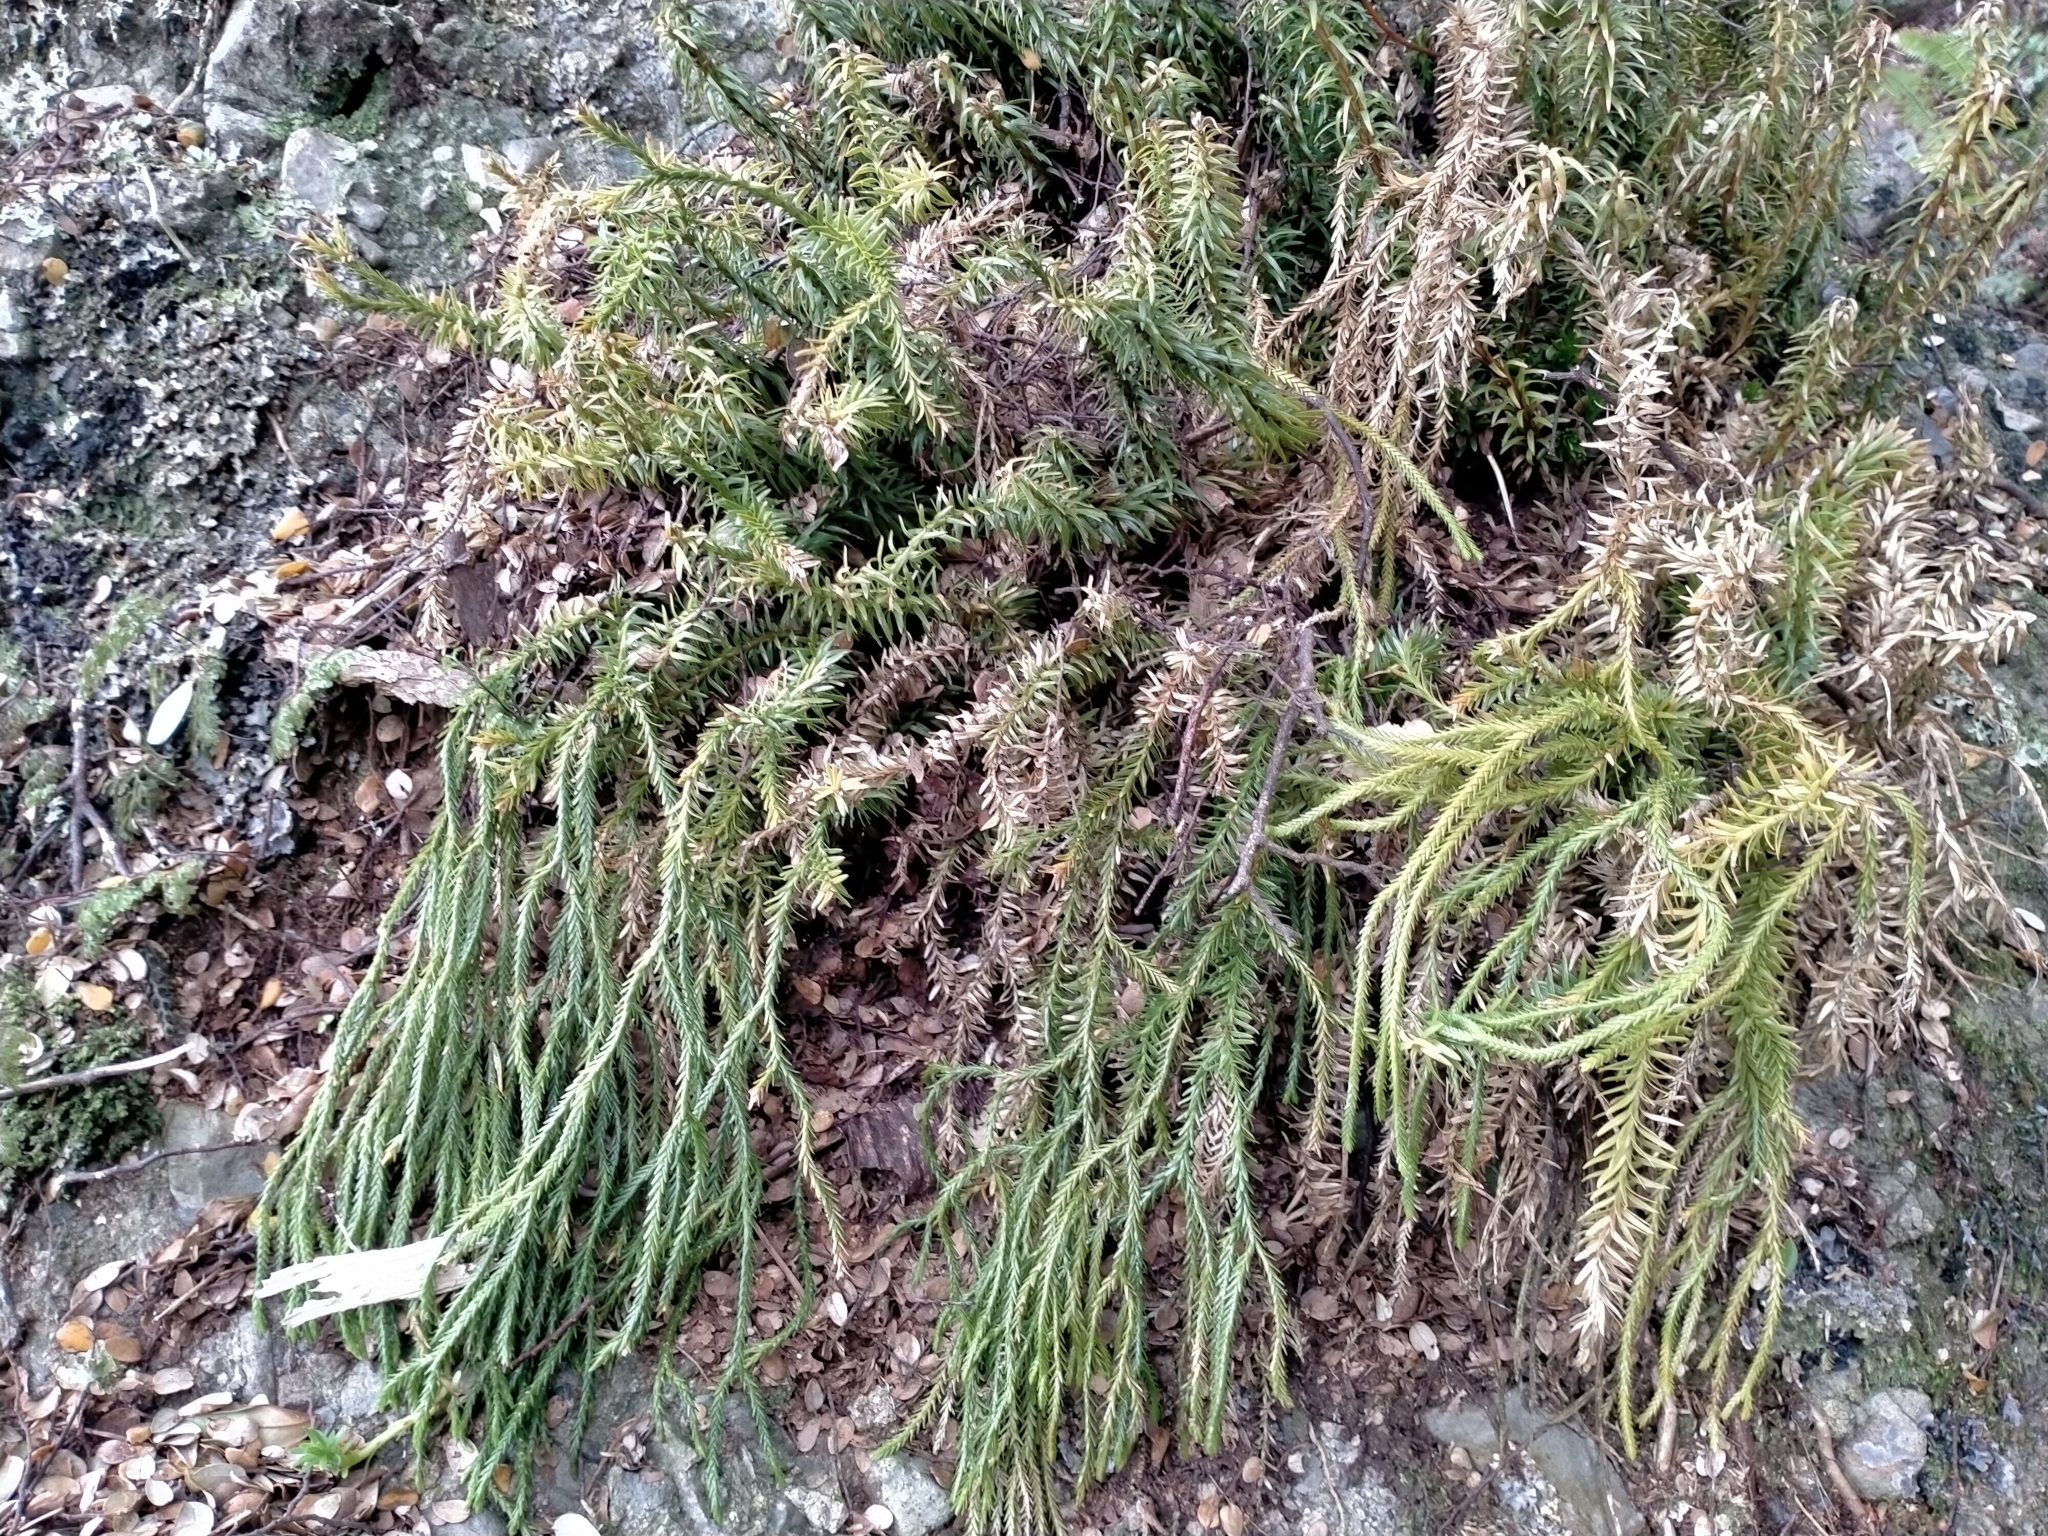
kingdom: Plantae
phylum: Tracheophyta
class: Lycopodiopsida
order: Lycopodiales
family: Lycopodiaceae
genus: Phlegmariurus
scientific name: Phlegmariurus varius
